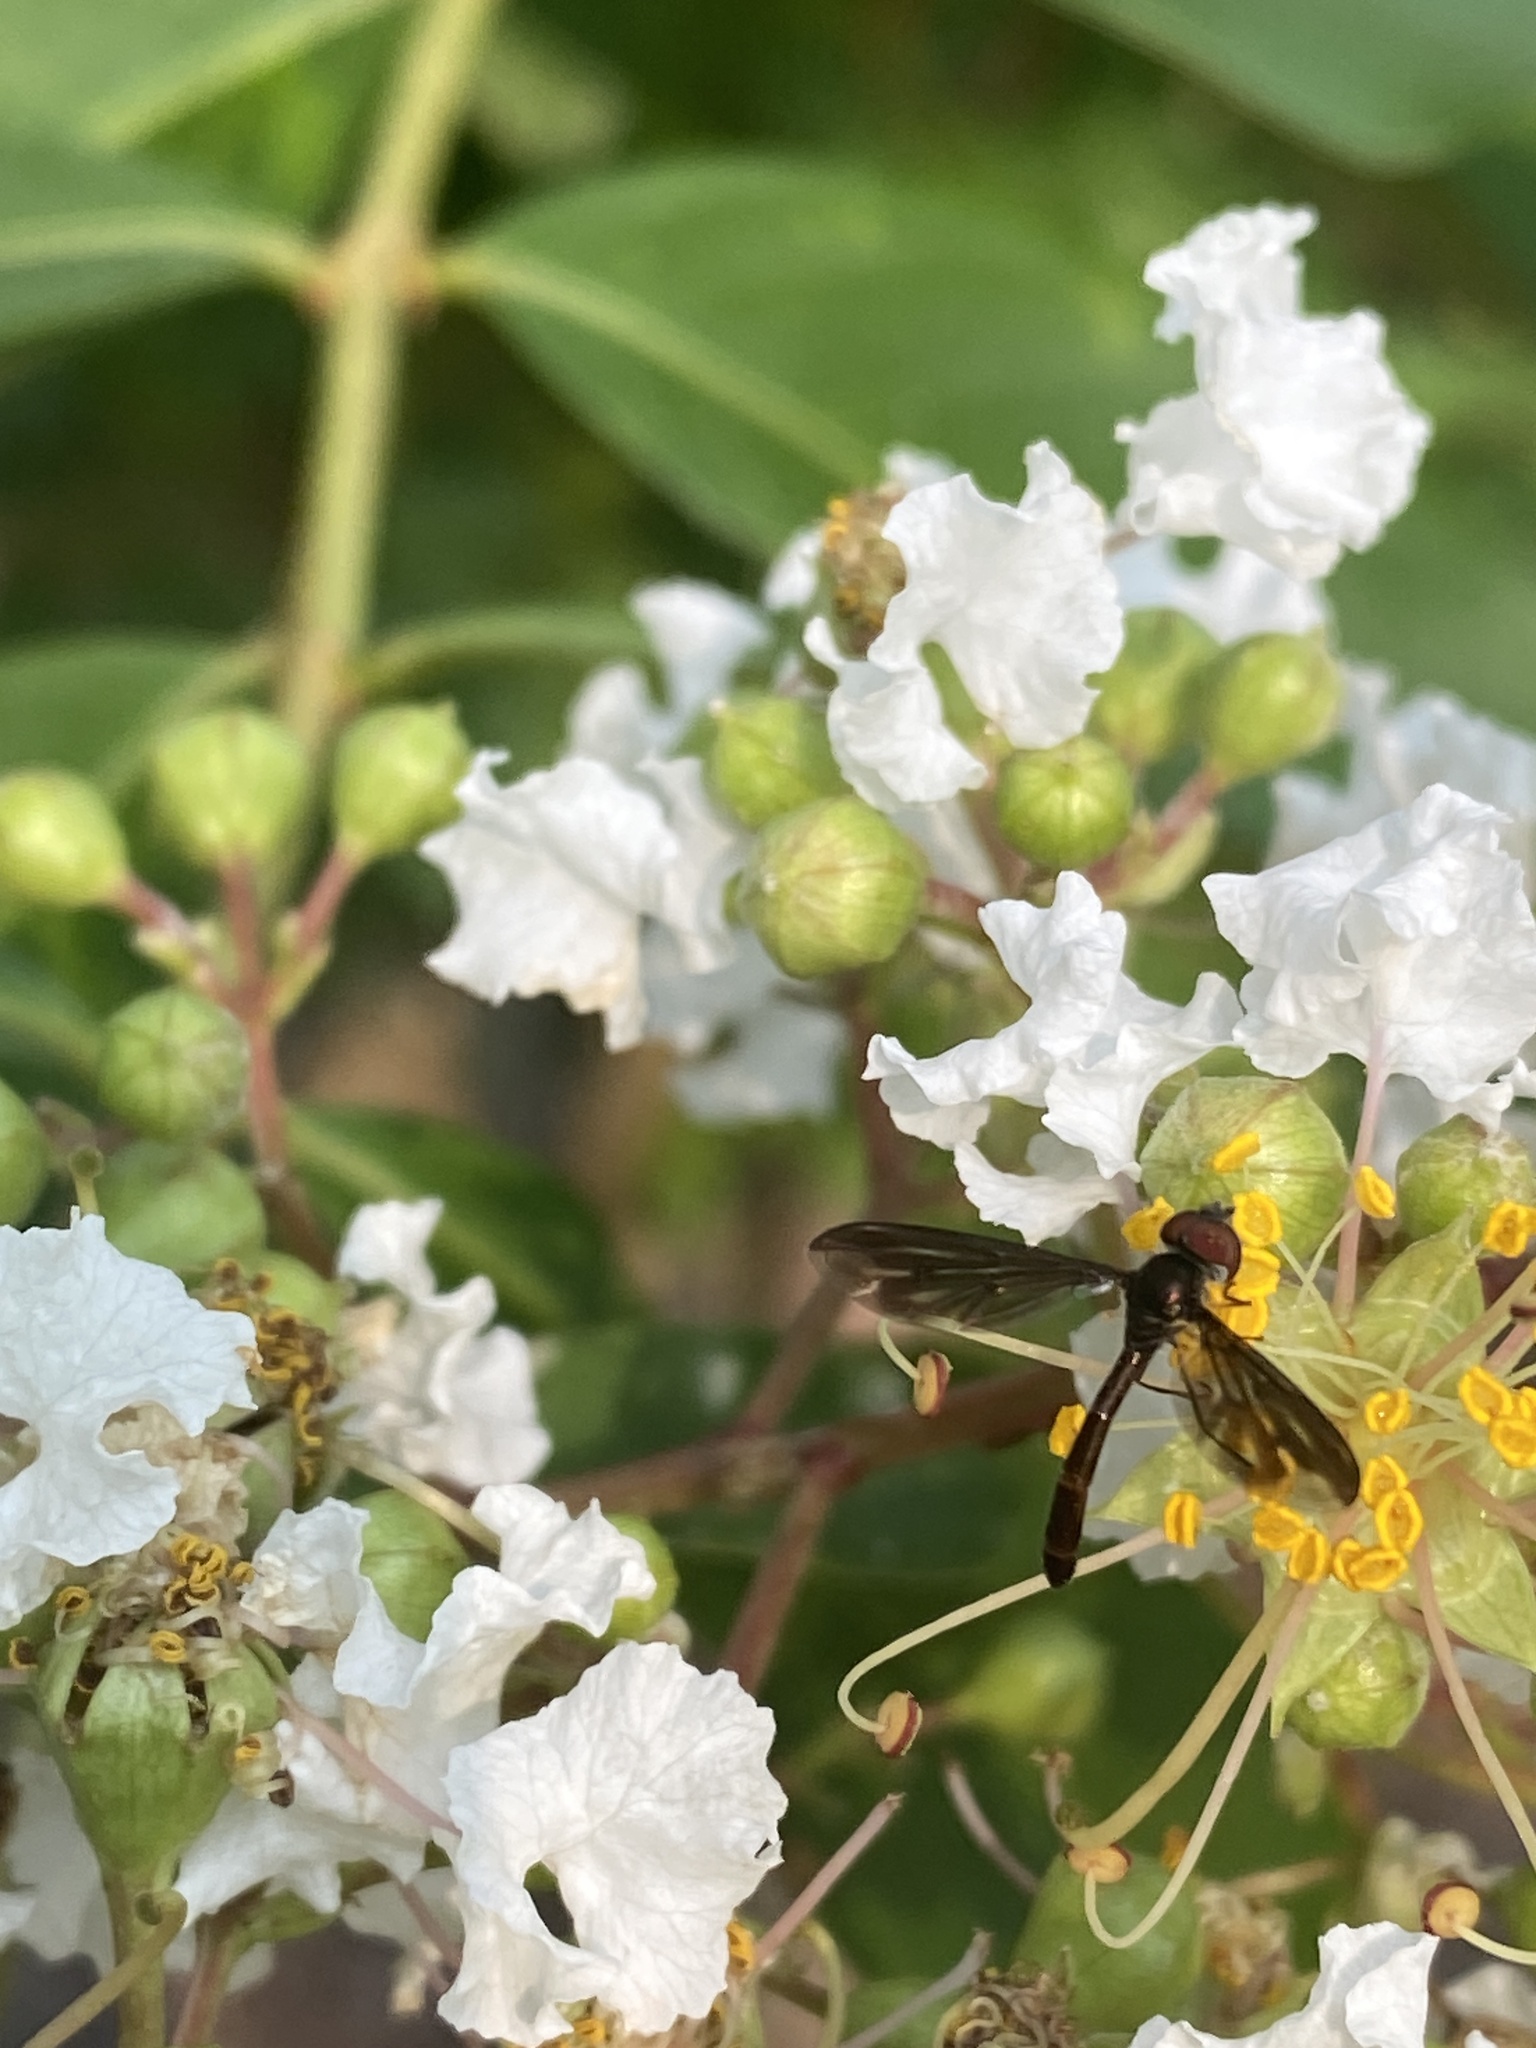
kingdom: Animalia
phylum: Arthropoda
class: Insecta
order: Diptera
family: Syrphidae
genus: Ocyptamus
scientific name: Ocyptamus fuscipennis
